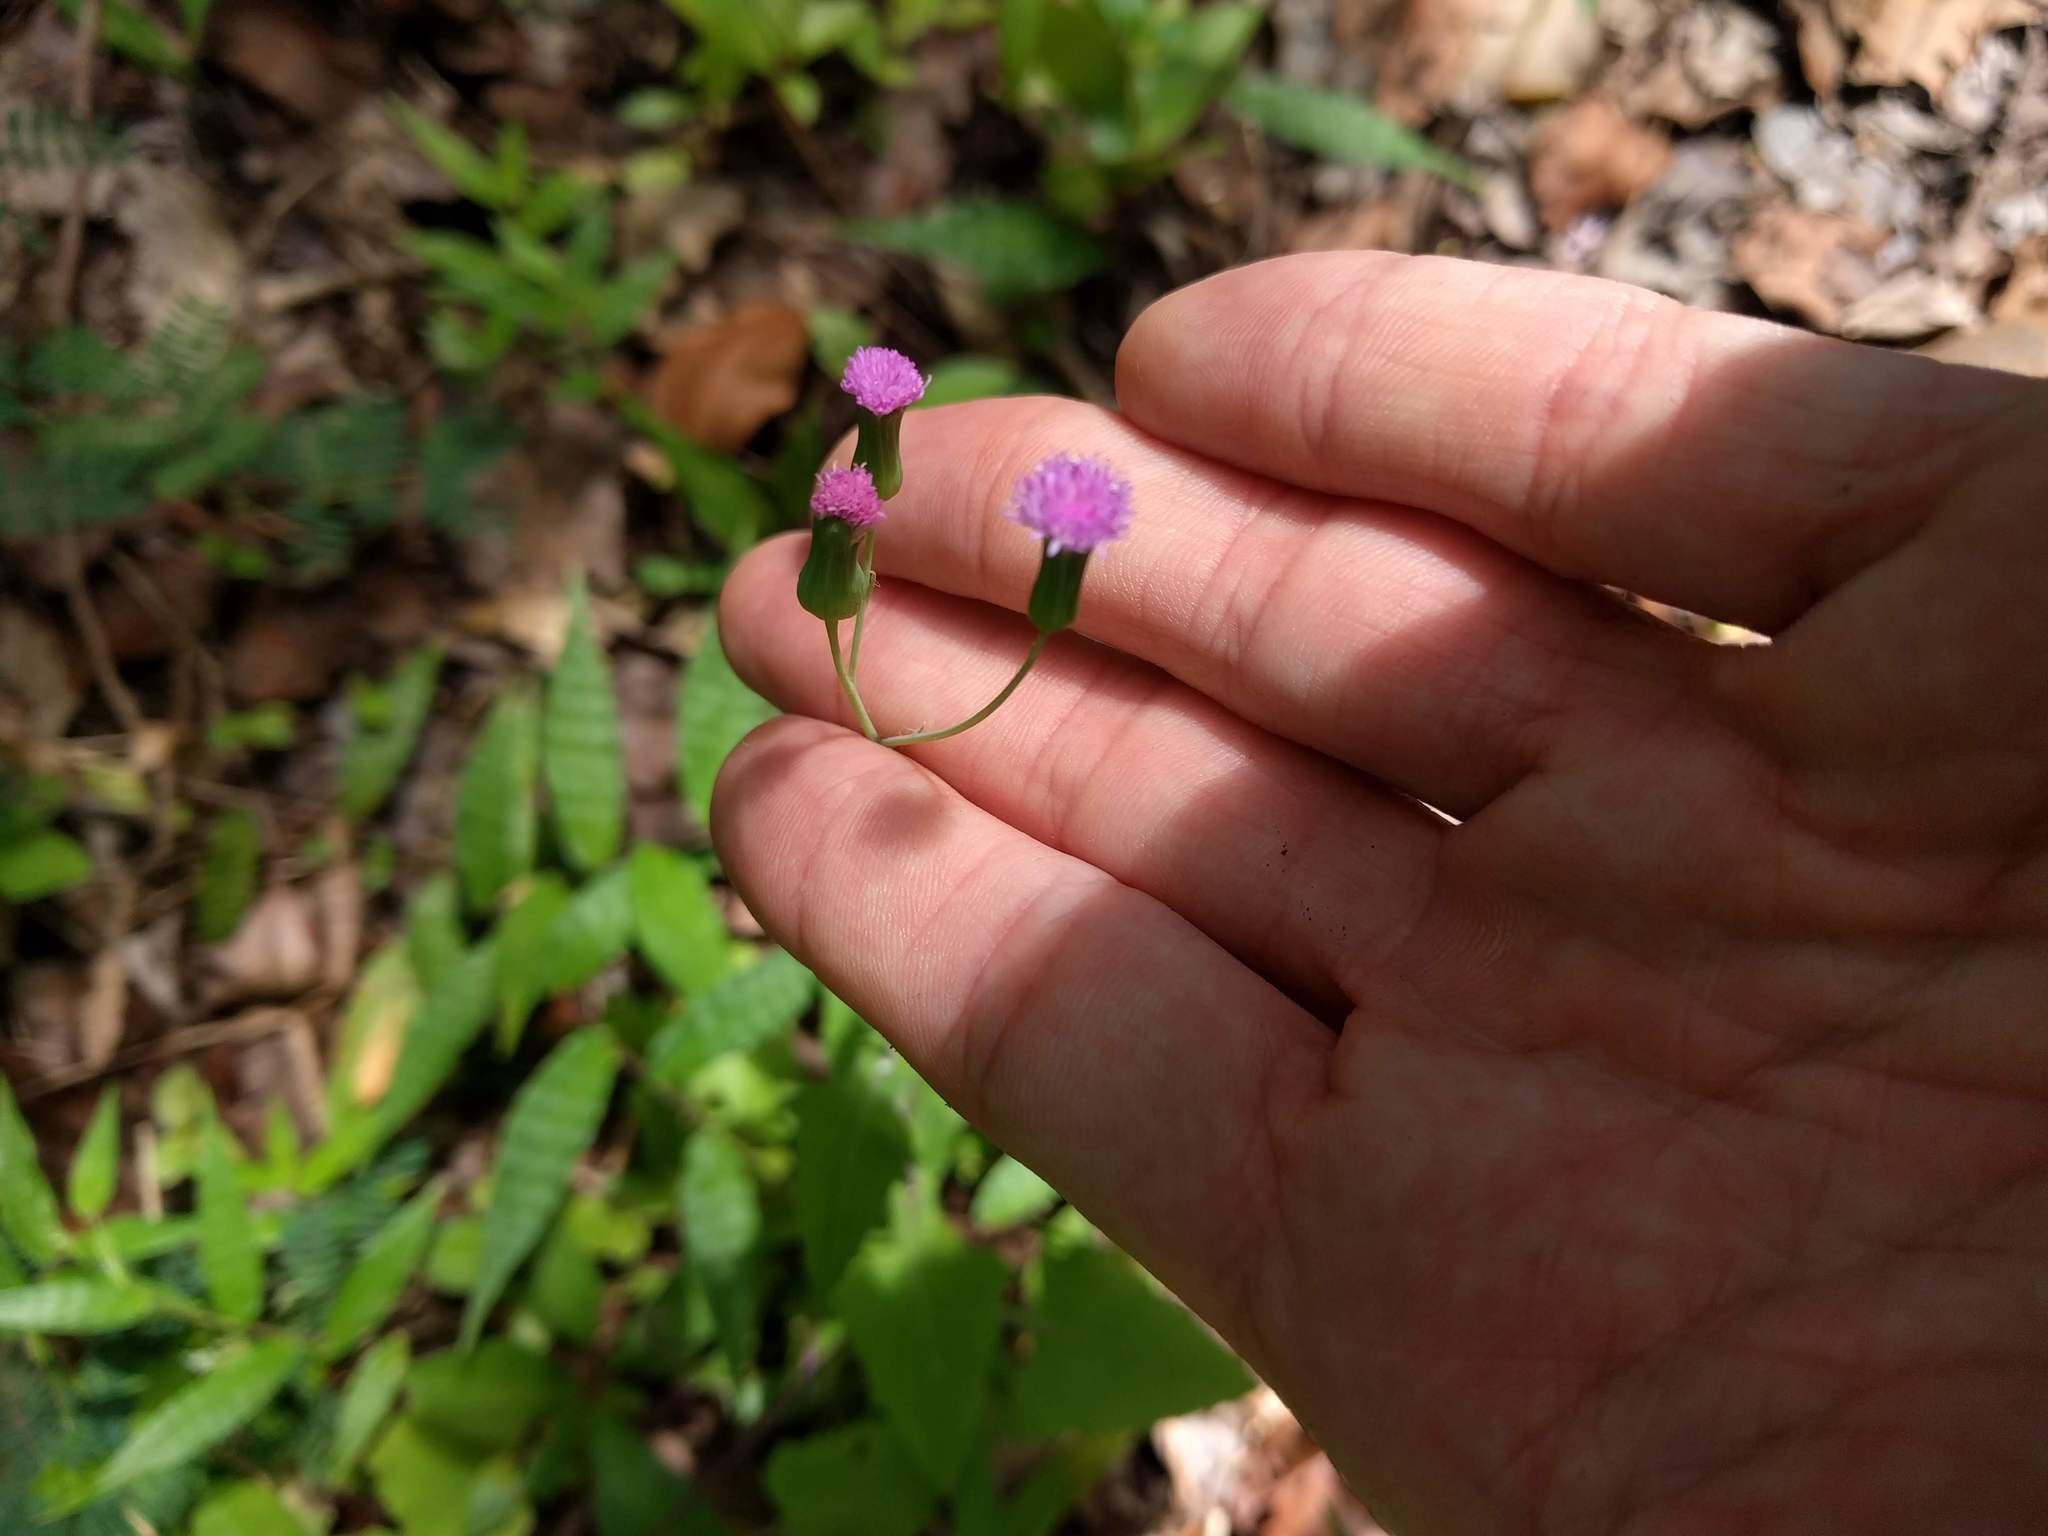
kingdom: Plantae
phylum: Tracheophyta
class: Magnoliopsida
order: Asterales
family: Asteraceae
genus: Emilia
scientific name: Emilia sonchifolia
